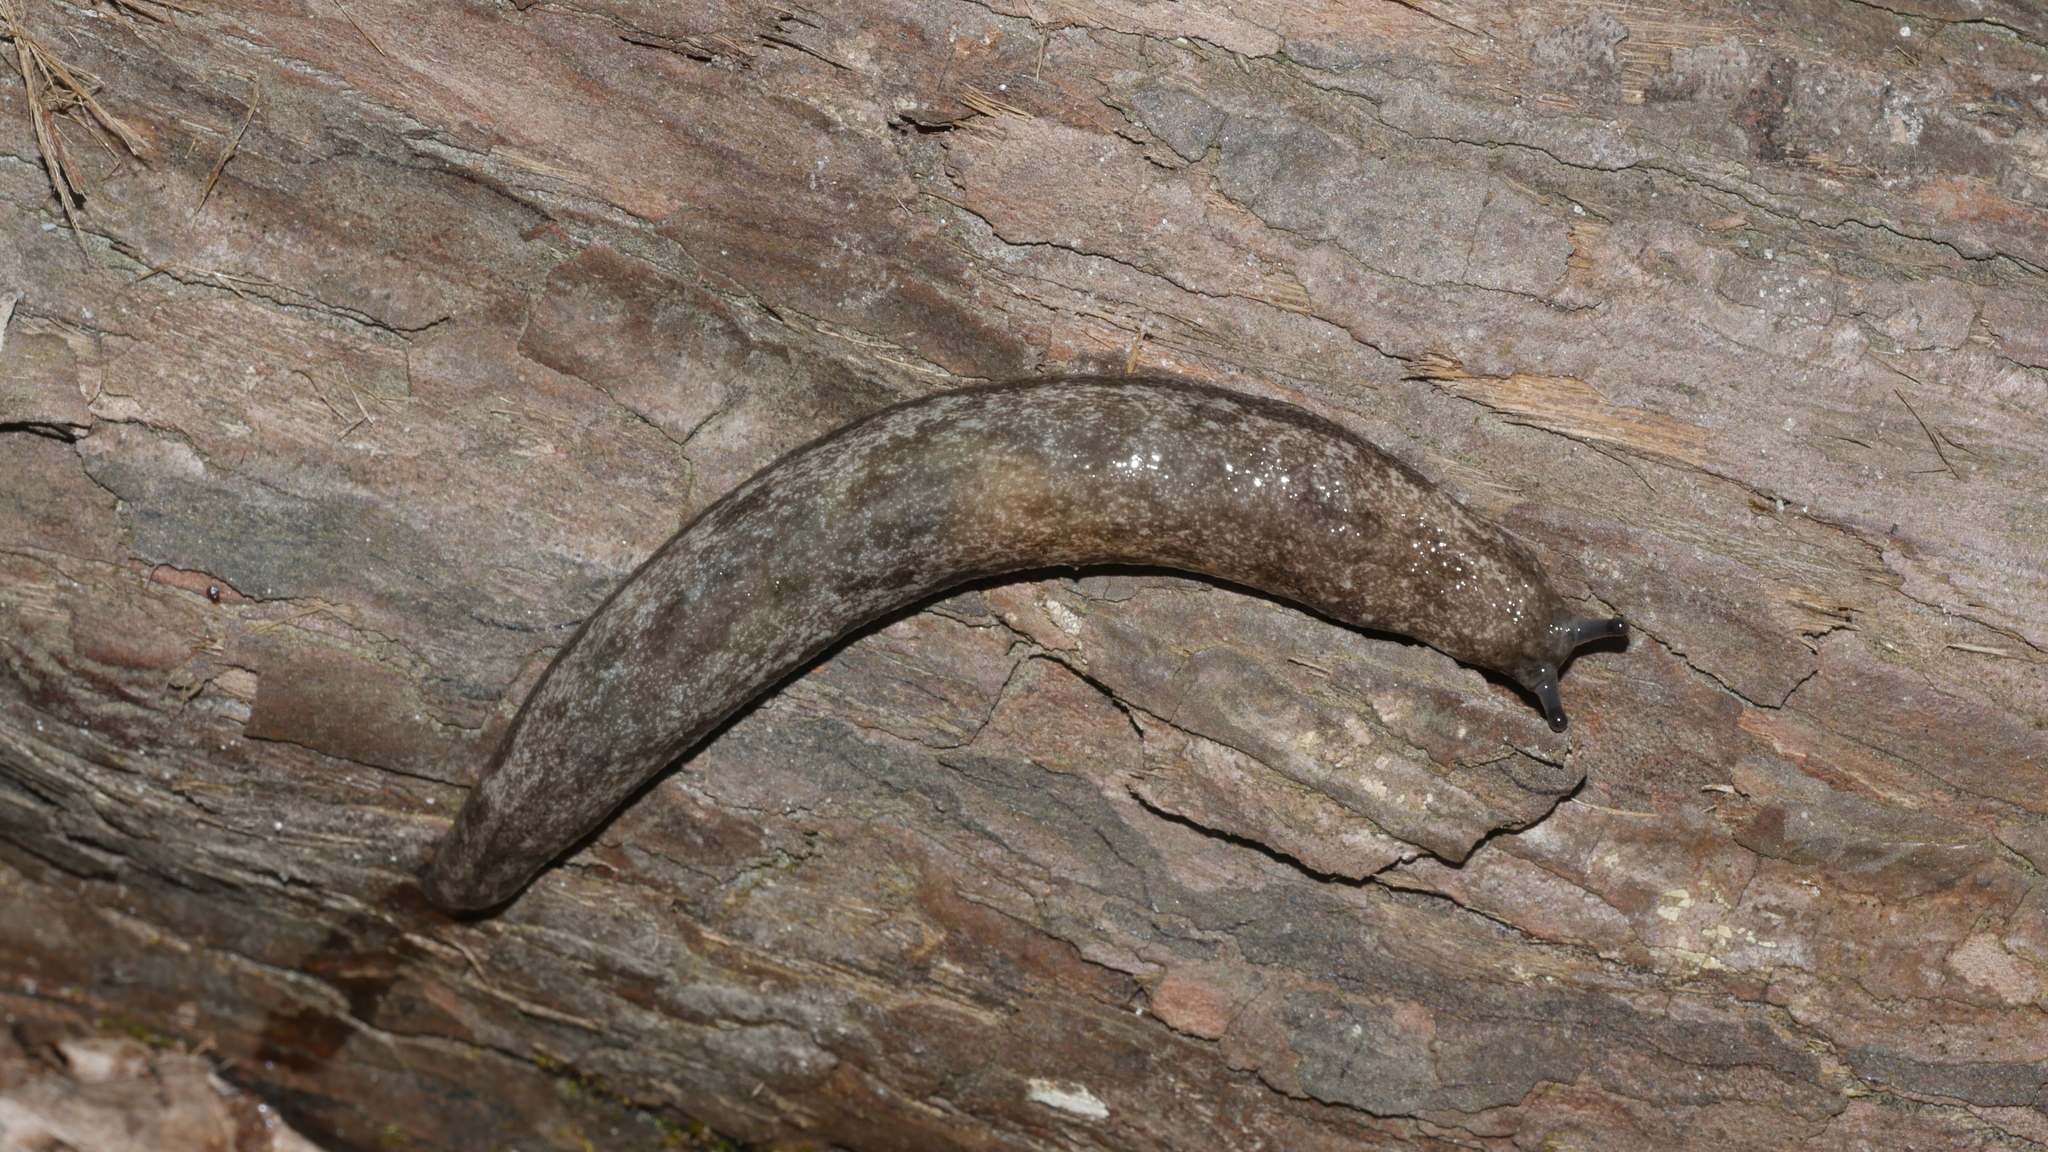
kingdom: Animalia
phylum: Mollusca
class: Gastropoda
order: Stylommatophora
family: Philomycidae
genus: Megapallifera
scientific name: Megapallifera mutabilis
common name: Changeable mantleslug
